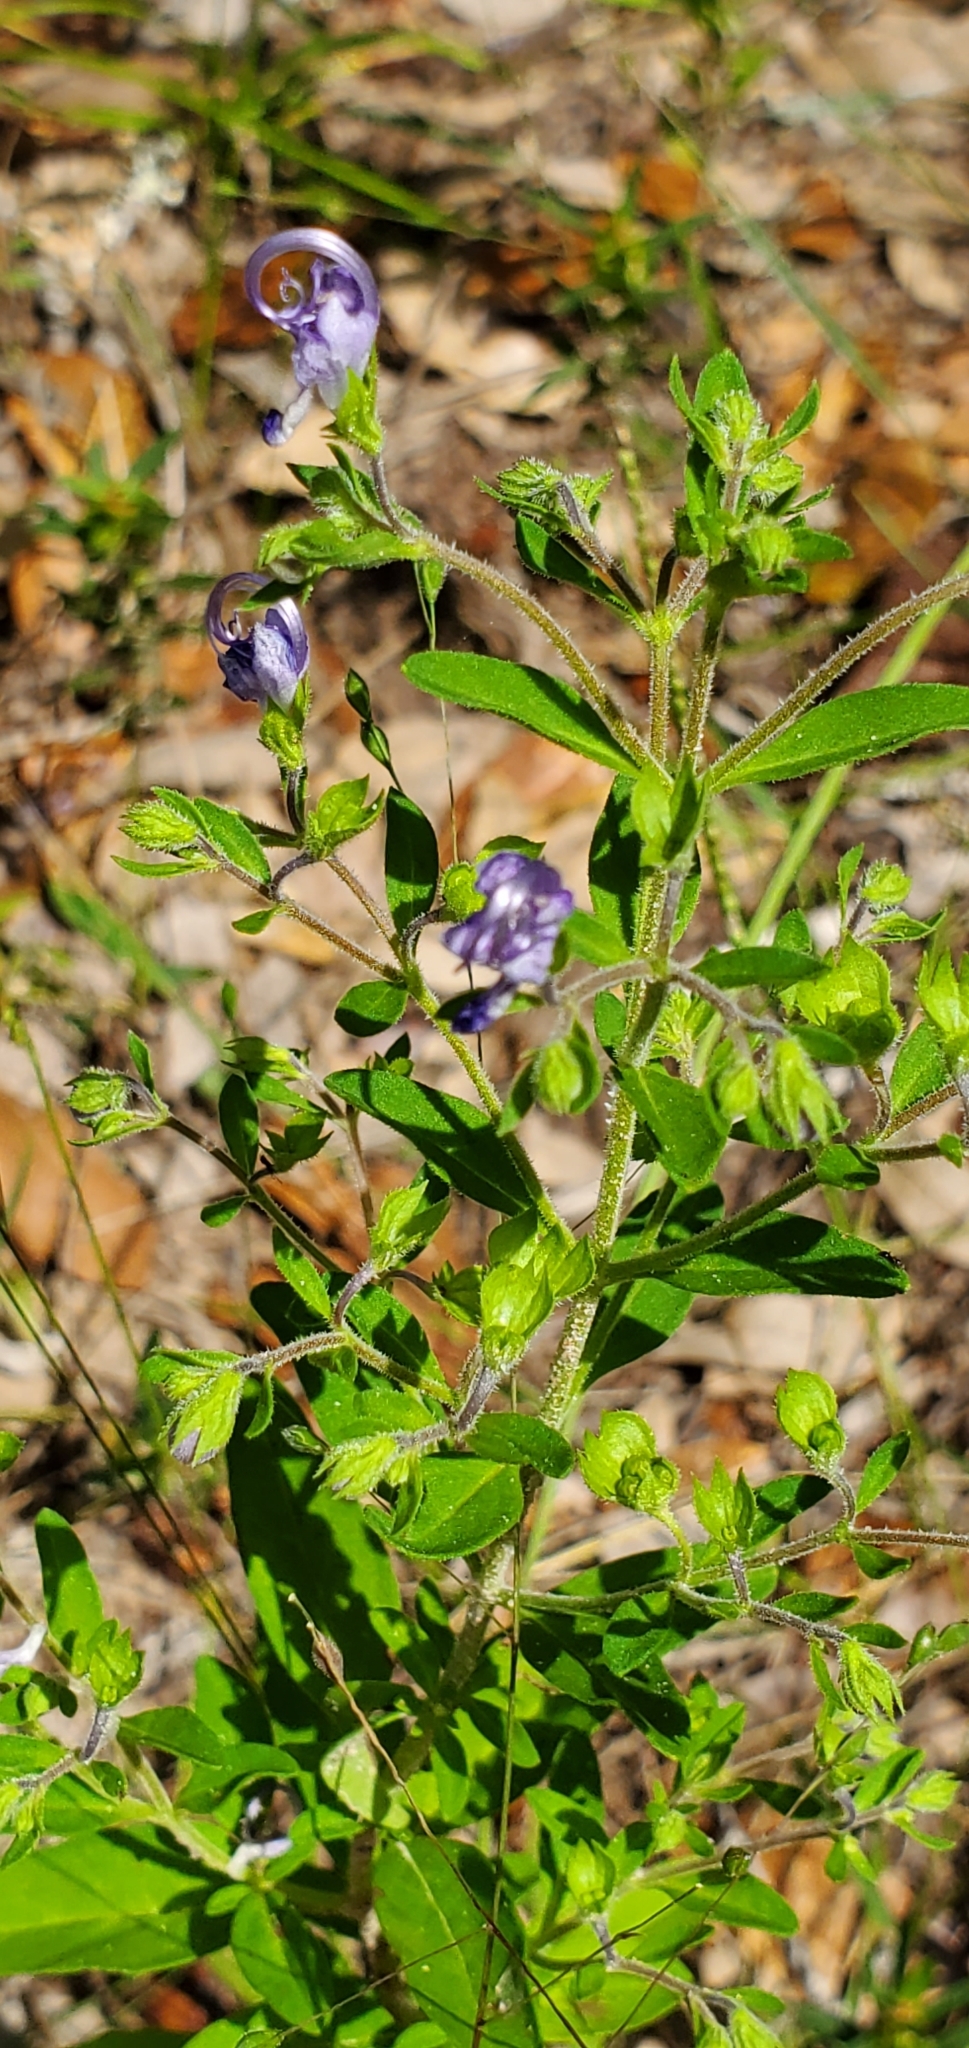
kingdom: Plantae
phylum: Tracheophyta
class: Magnoliopsida
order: Lamiales
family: Lamiaceae
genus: Trichostema
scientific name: Trichostema dichotomum
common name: Bastard pennyroyal
